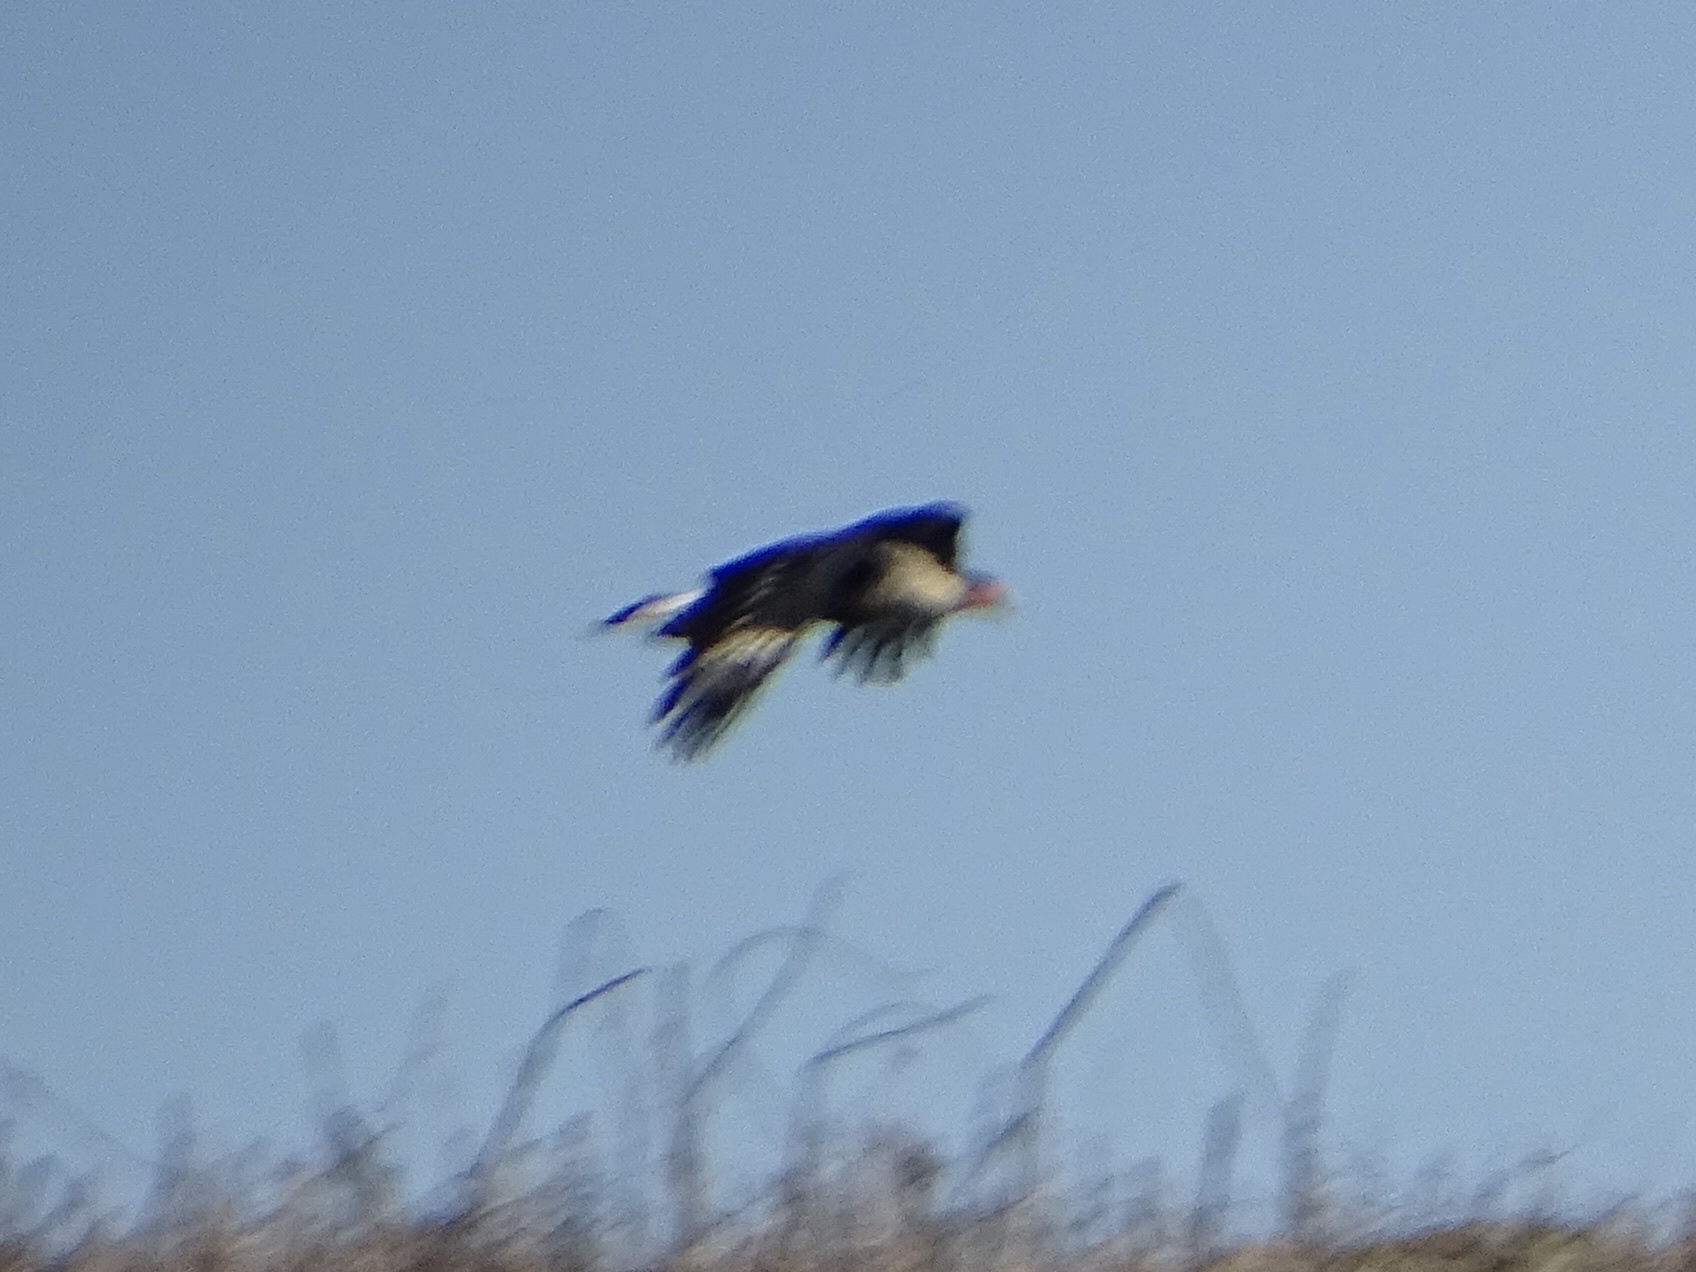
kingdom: Animalia
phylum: Chordata
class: Aves
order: Falconiformes
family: Falconidae
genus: Caracara
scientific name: Caracara plancus
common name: Southern caracara
